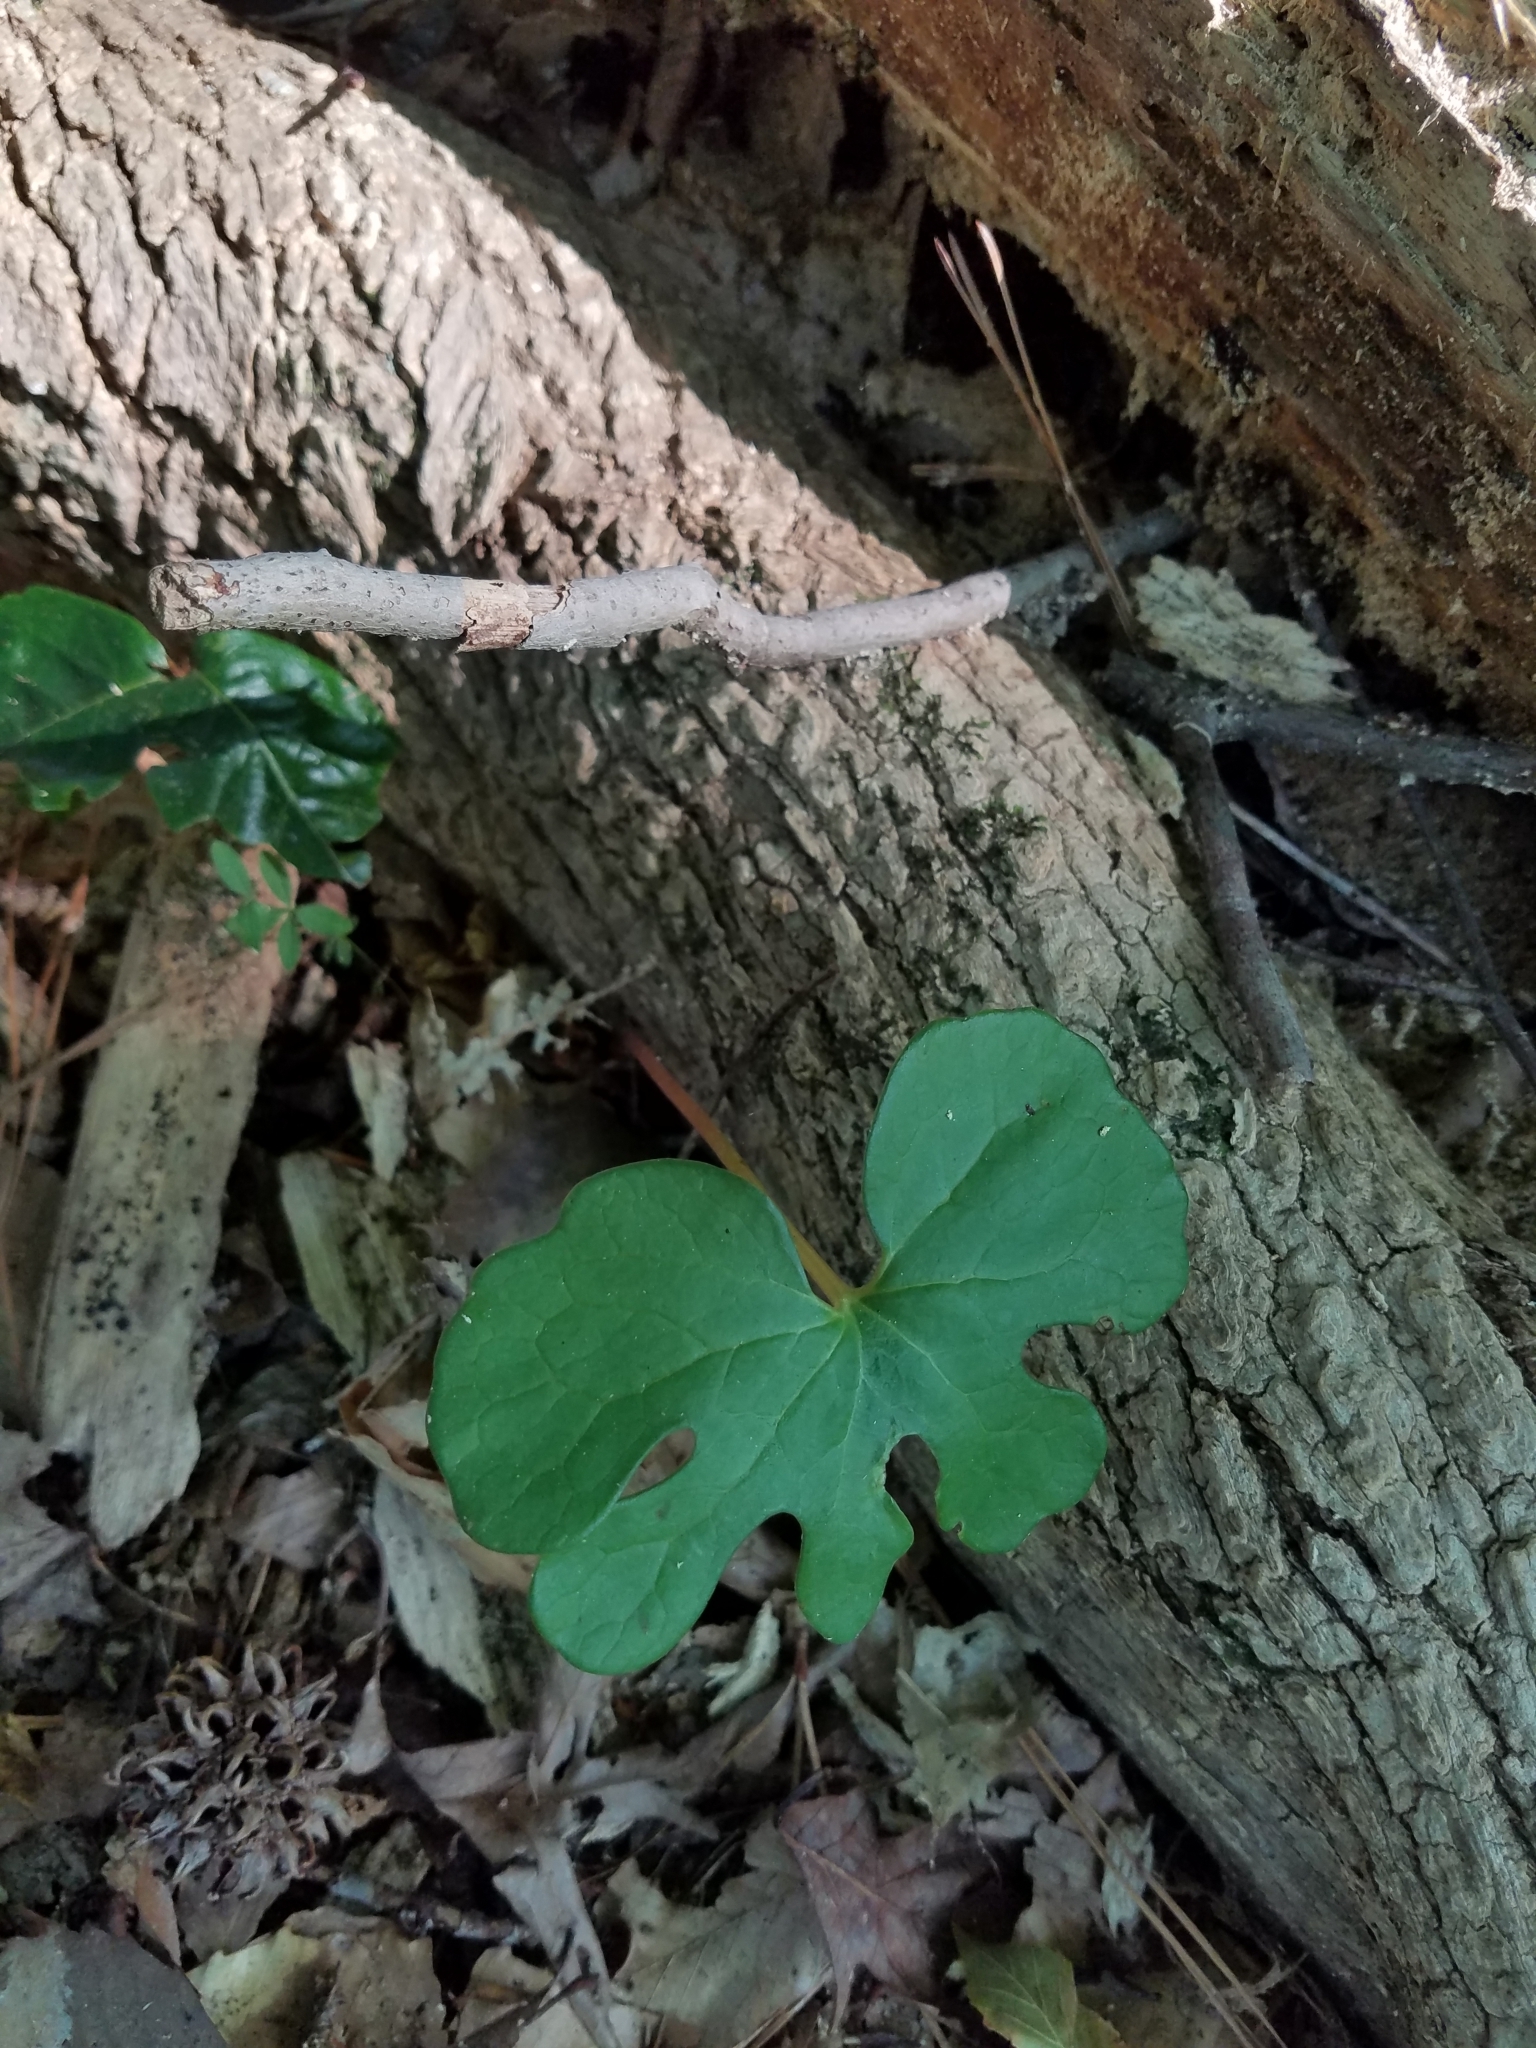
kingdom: Plantae
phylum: Tracheophyta
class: Magnoliopsida
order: Ranunculales
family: Papaveraceae
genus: Sanguinaria
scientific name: Sanguinaria canadensis
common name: Bloodroot
